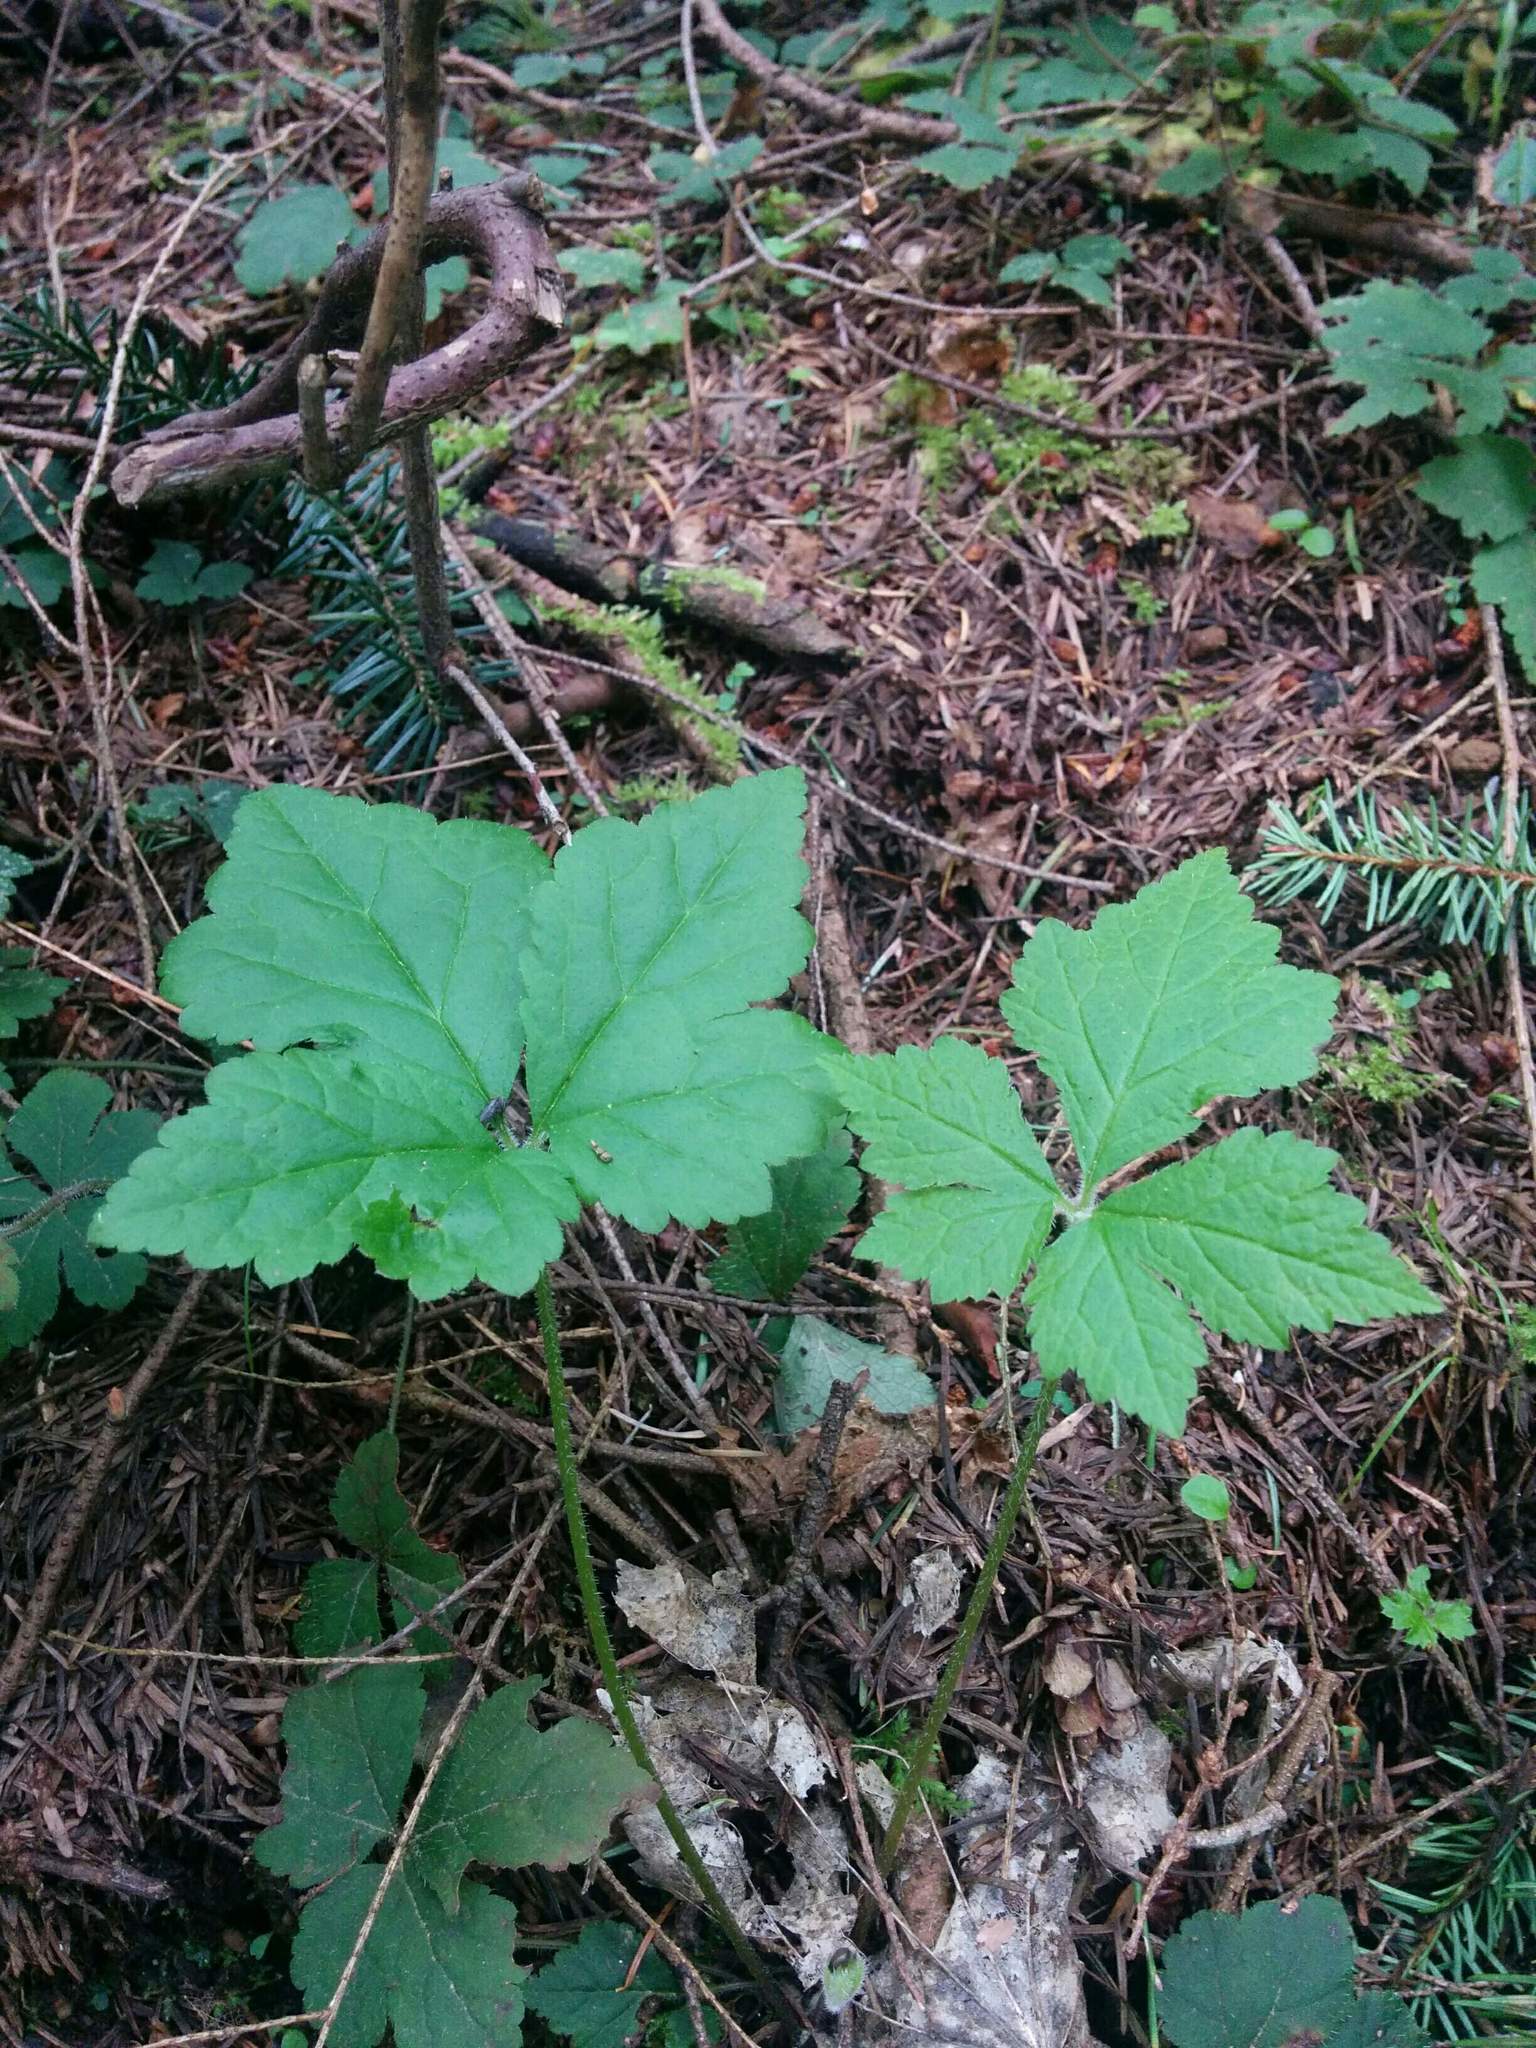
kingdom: Plantae
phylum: Tracheophyta
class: Magnoliopsida
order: Saxifragales
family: Saxifragaceae
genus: Tiarella
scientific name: Tiarella trifoliata
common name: Sugar-scoop
